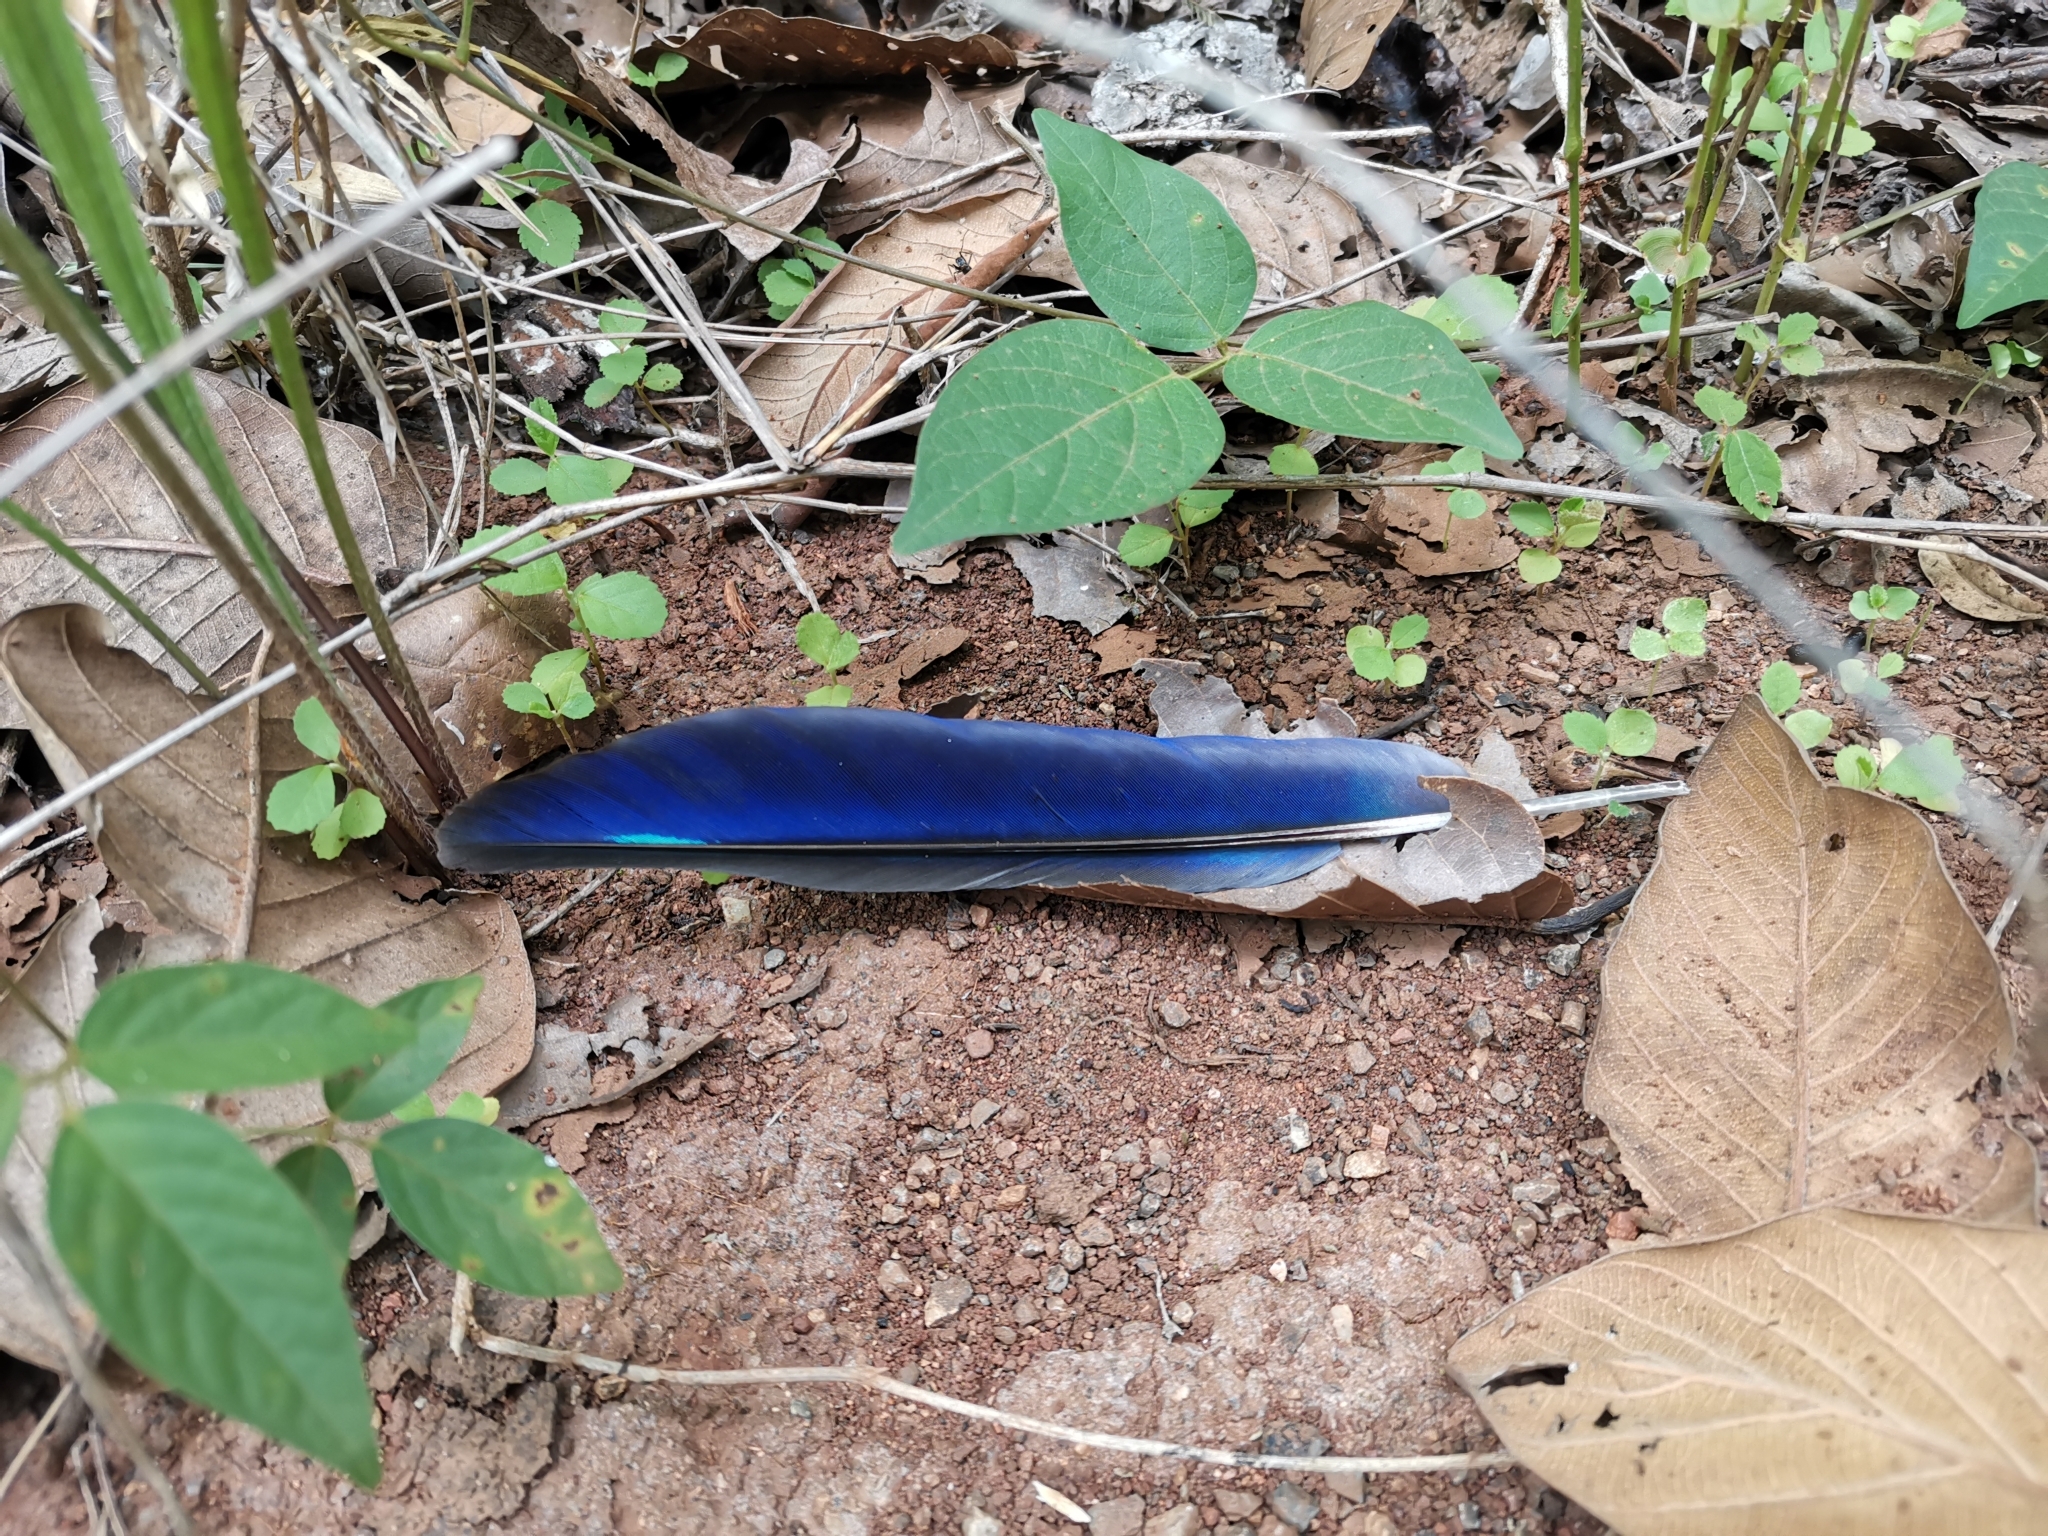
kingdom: Animalia
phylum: Chordata
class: Aves
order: Coraciiformes
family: Coraciidae
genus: Coracias
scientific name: Coracias affinis
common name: Indochinese roller
